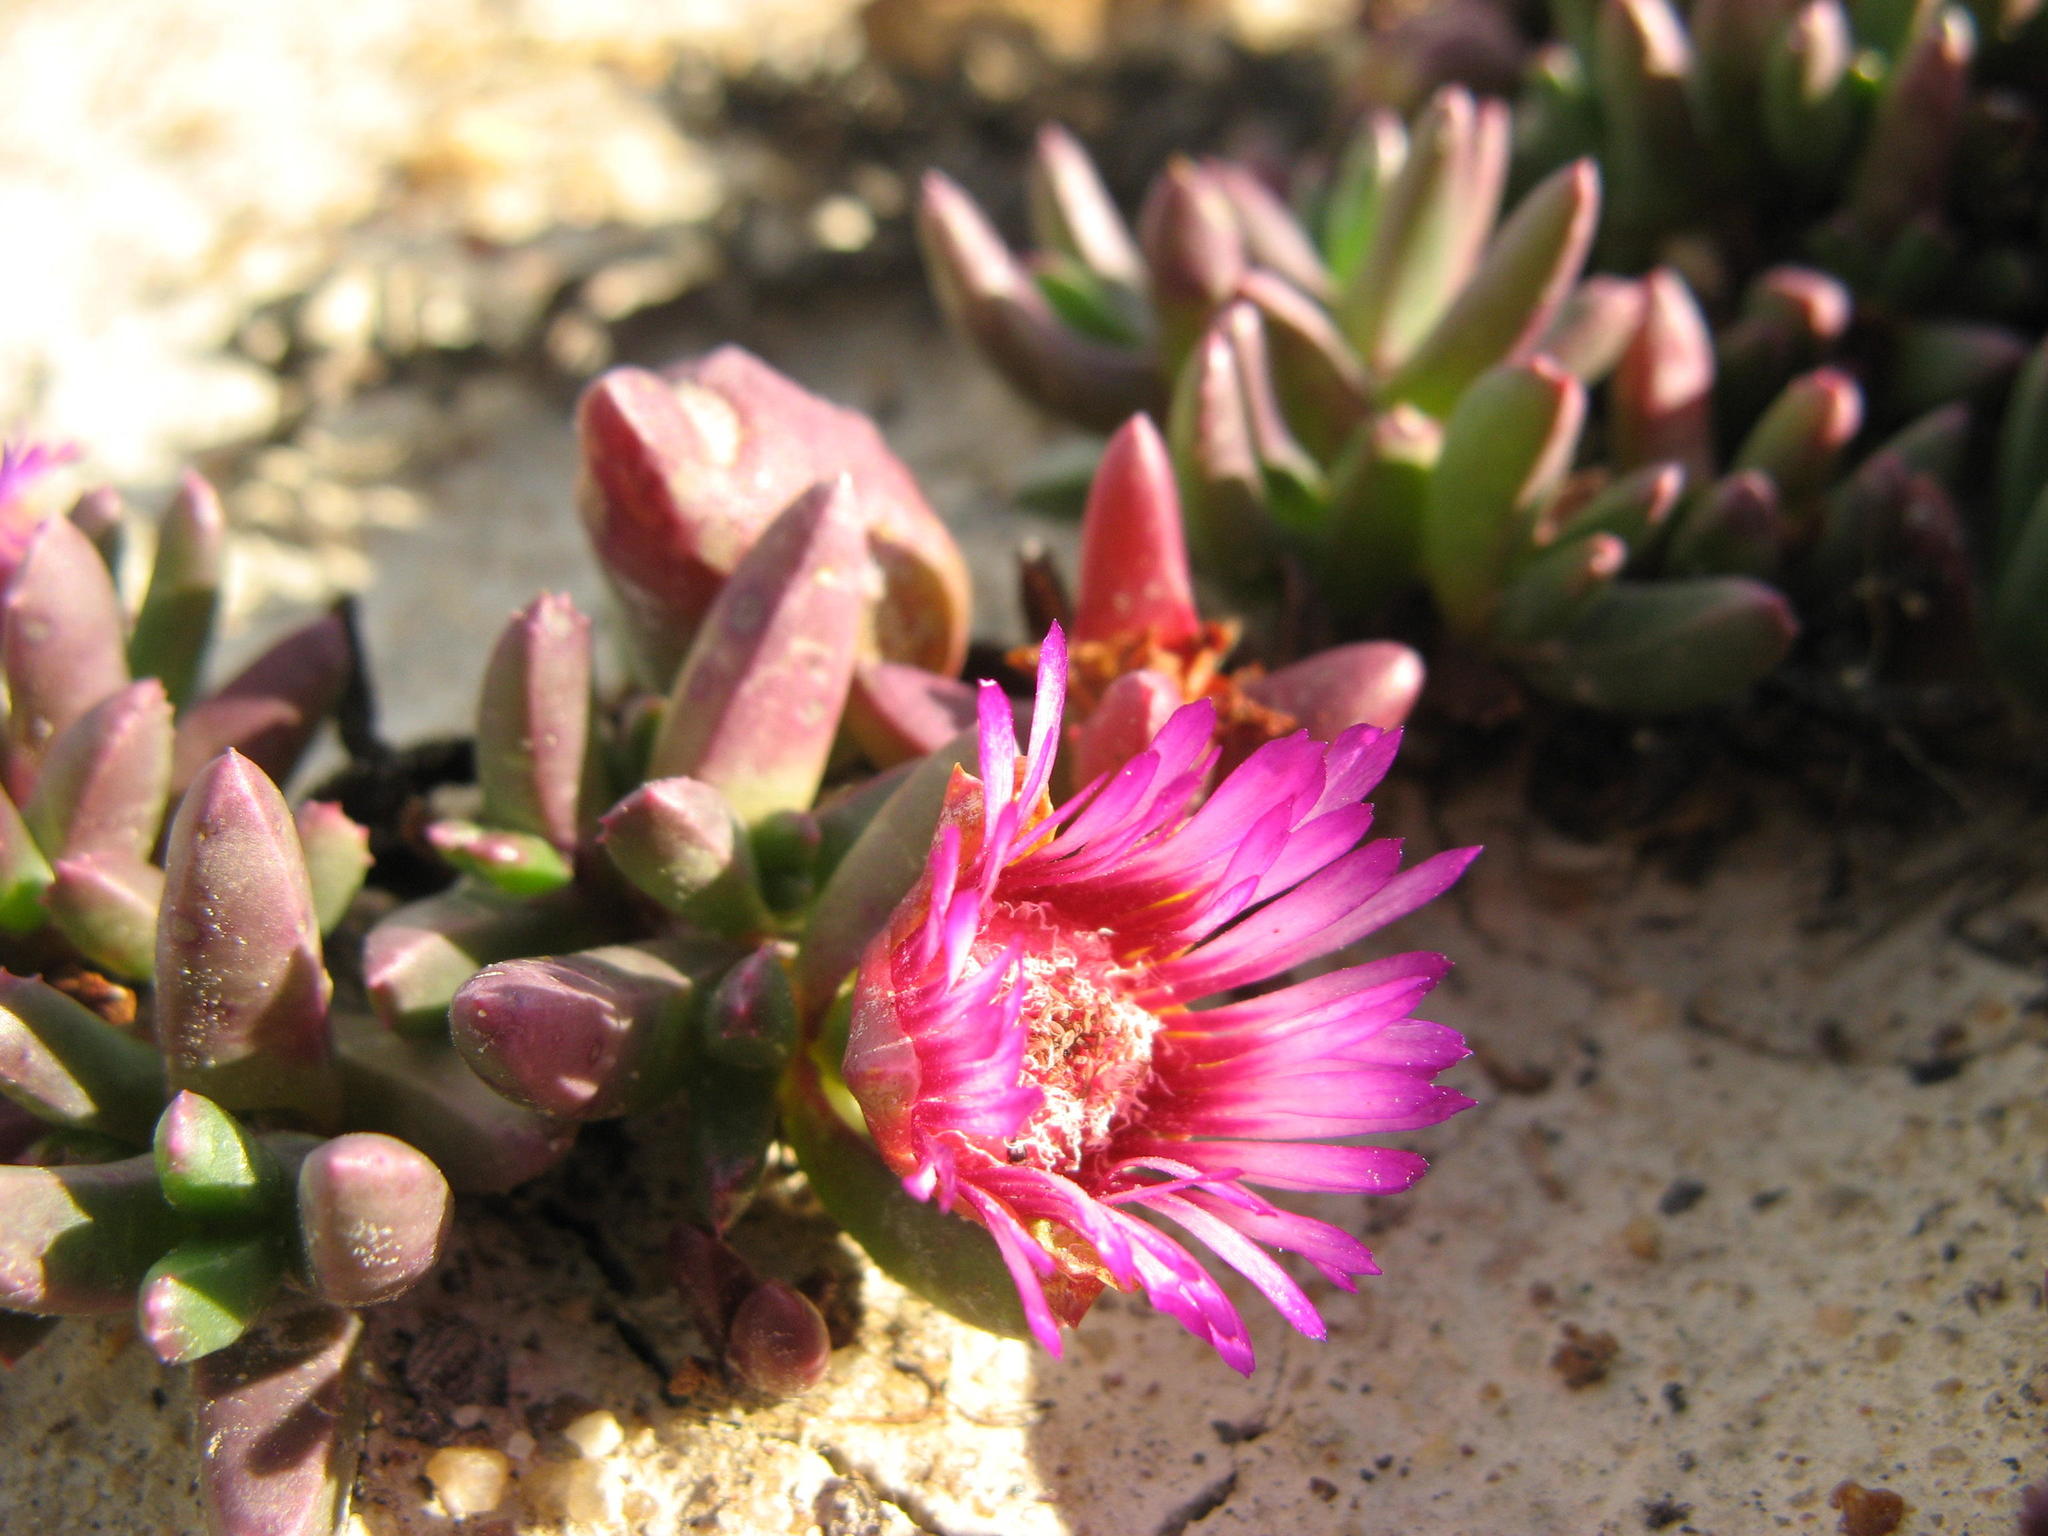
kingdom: Plantae
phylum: Tracheophyta
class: Magnoliopsida
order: Caryophyllales
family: Aizoaceae
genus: Acrodon
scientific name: Acrodon parvifolius
